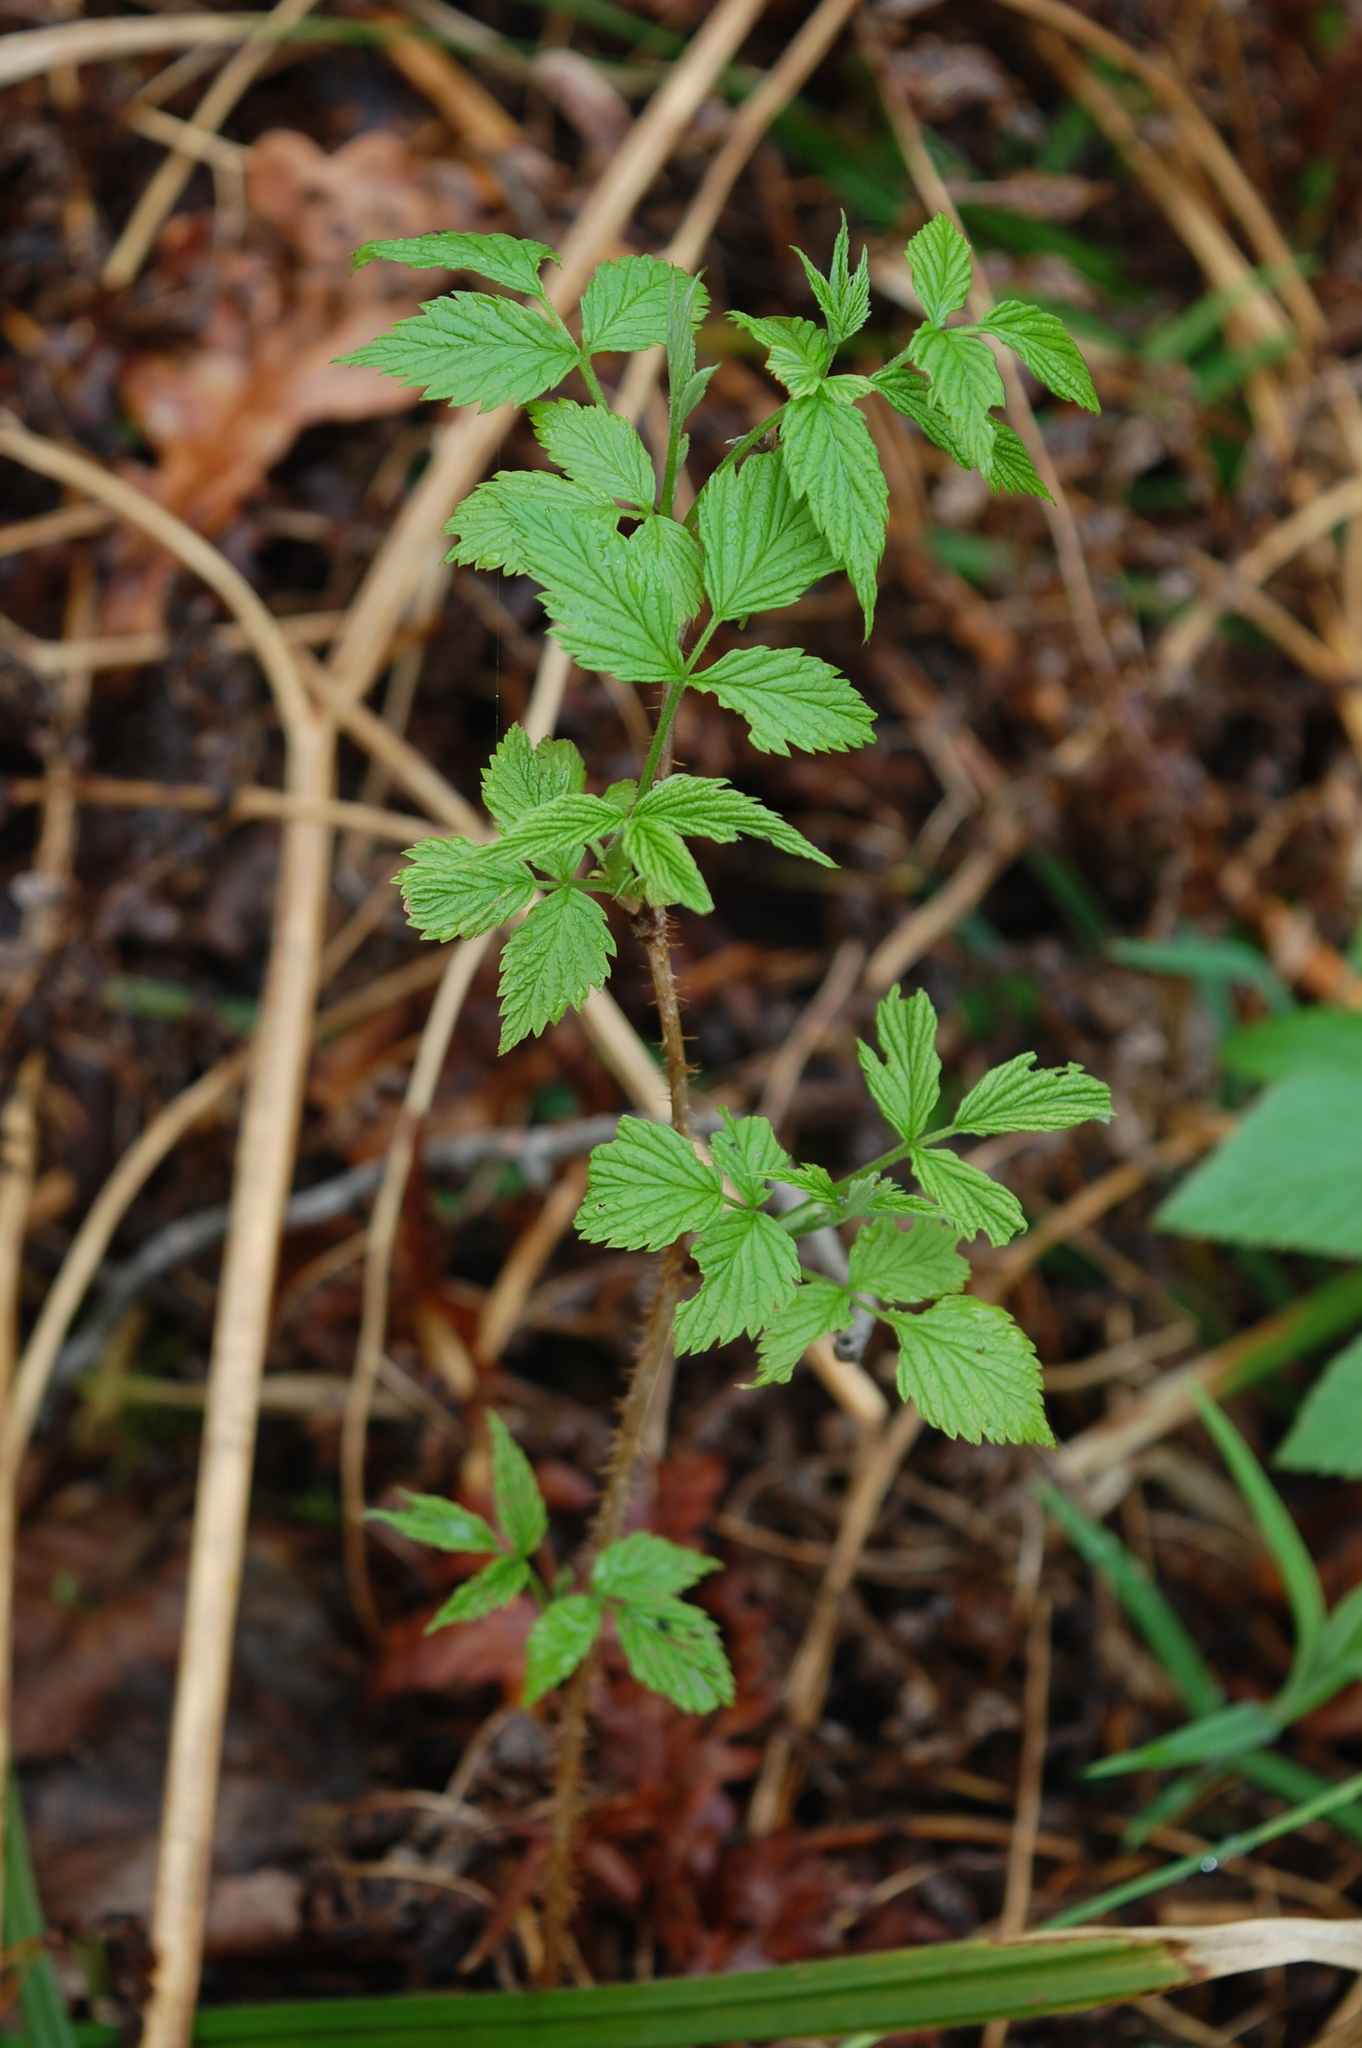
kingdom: Plantae
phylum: Tracheophyta
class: Magnoliopsida
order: Rosales
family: Rosaceae
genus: Rubus
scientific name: Rubus idaeus
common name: Raspberry
